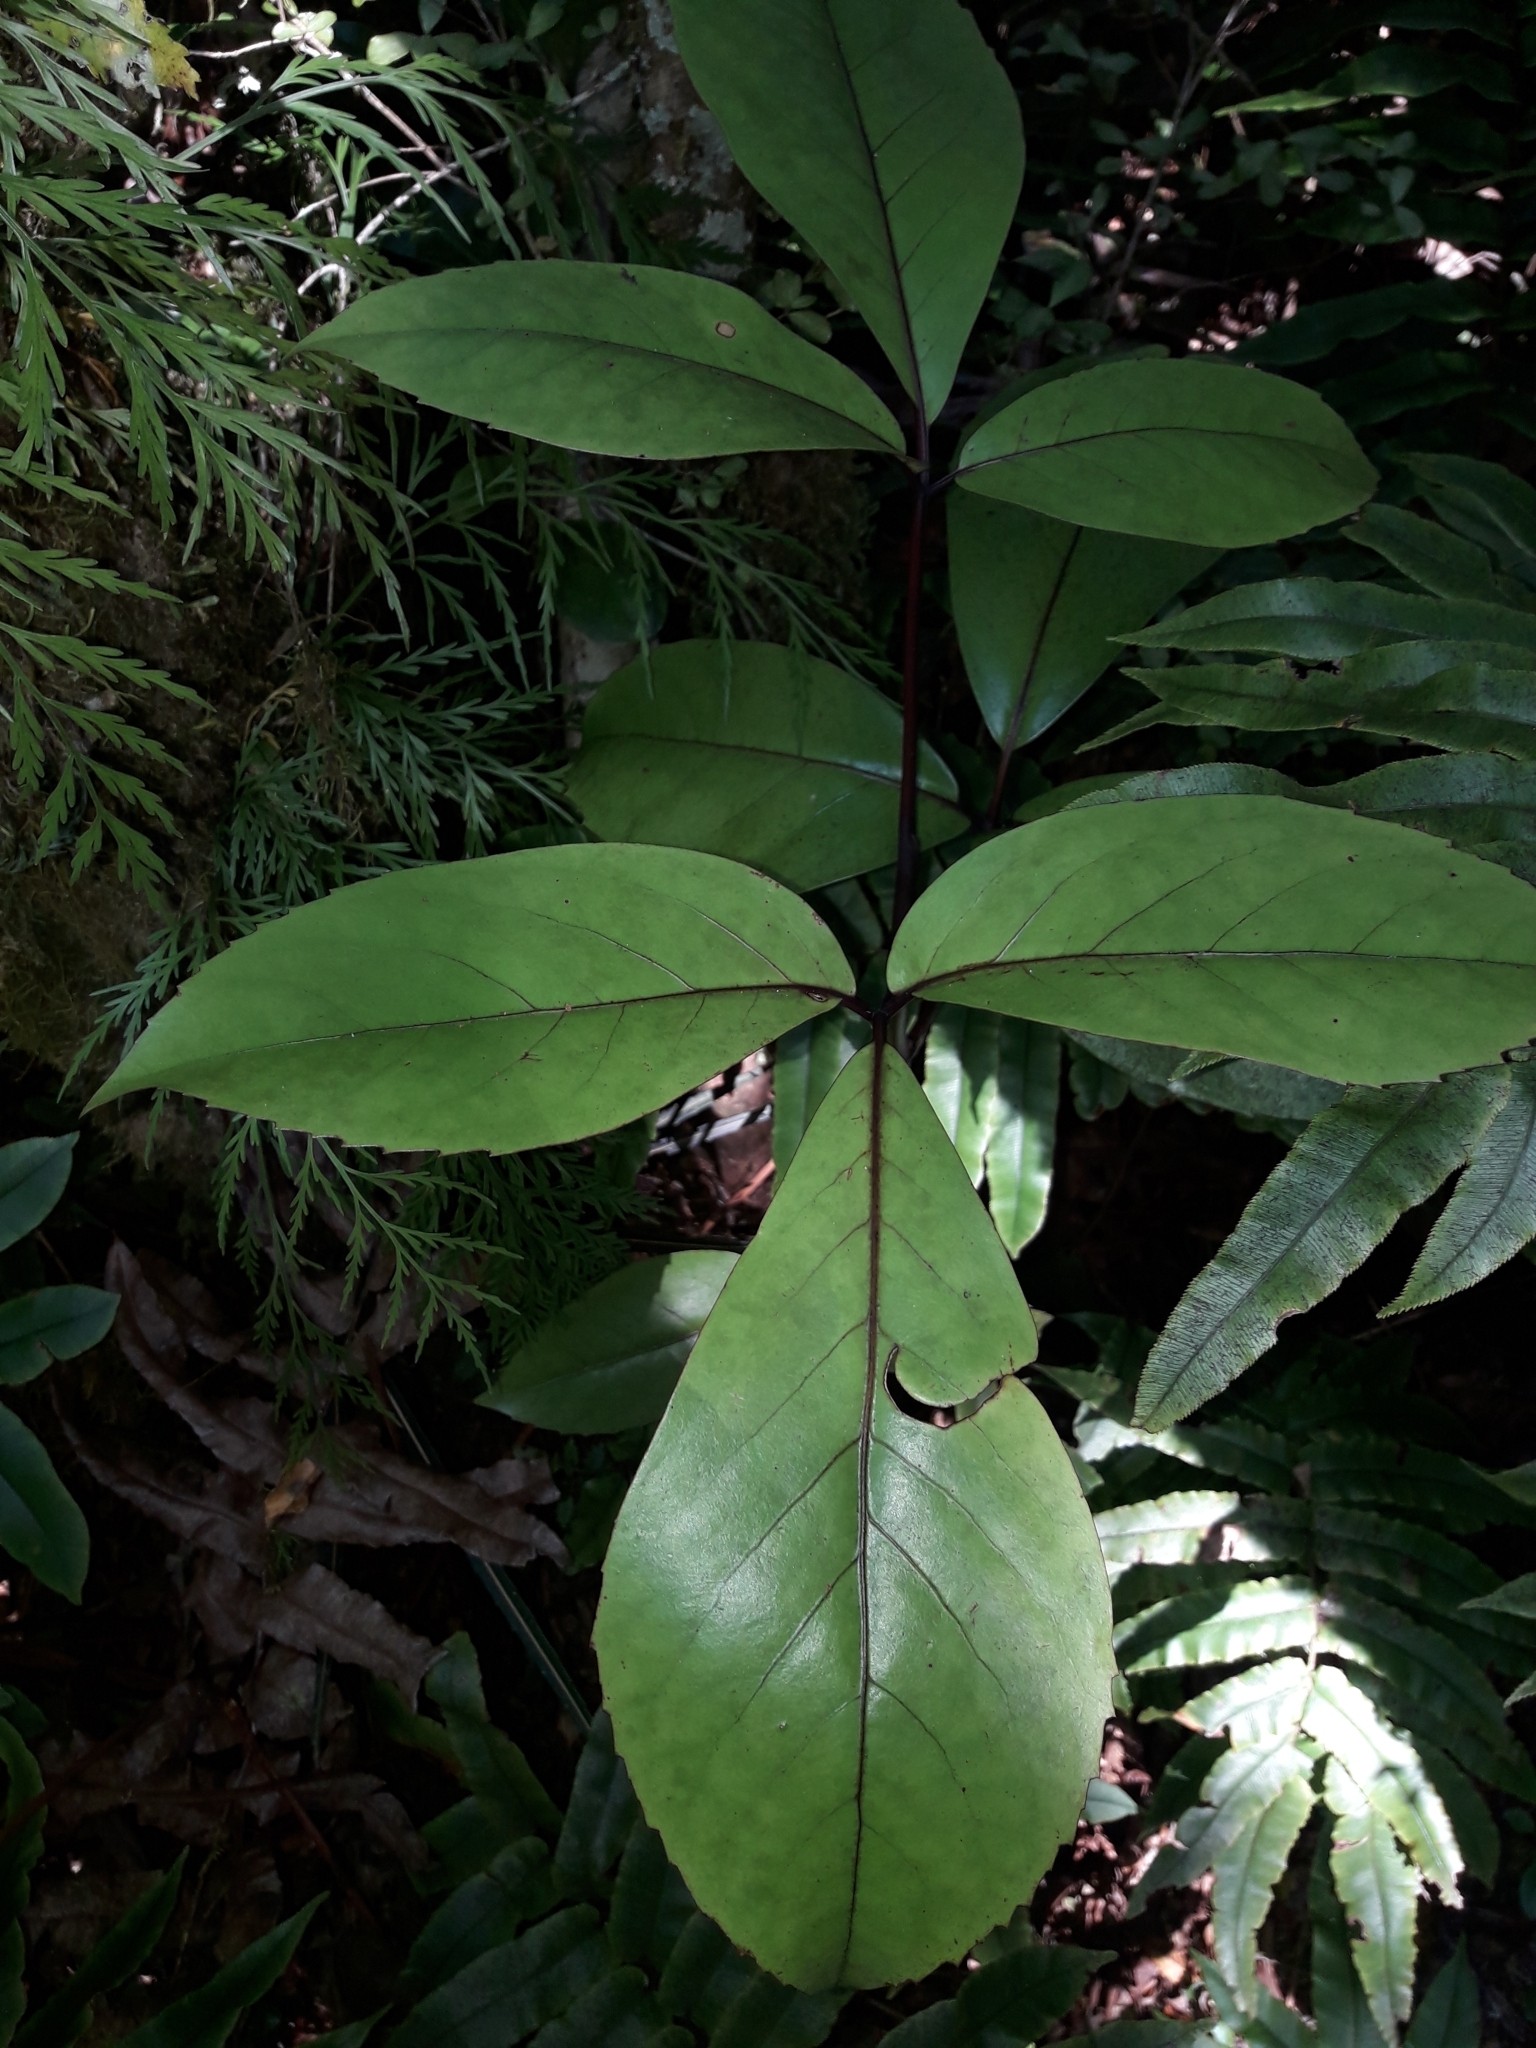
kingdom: Plantae
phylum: Tracheophyta
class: Magnoliopsida
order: Apiales
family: Araliaceae
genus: Neopanax
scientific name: Neopanax laetus
